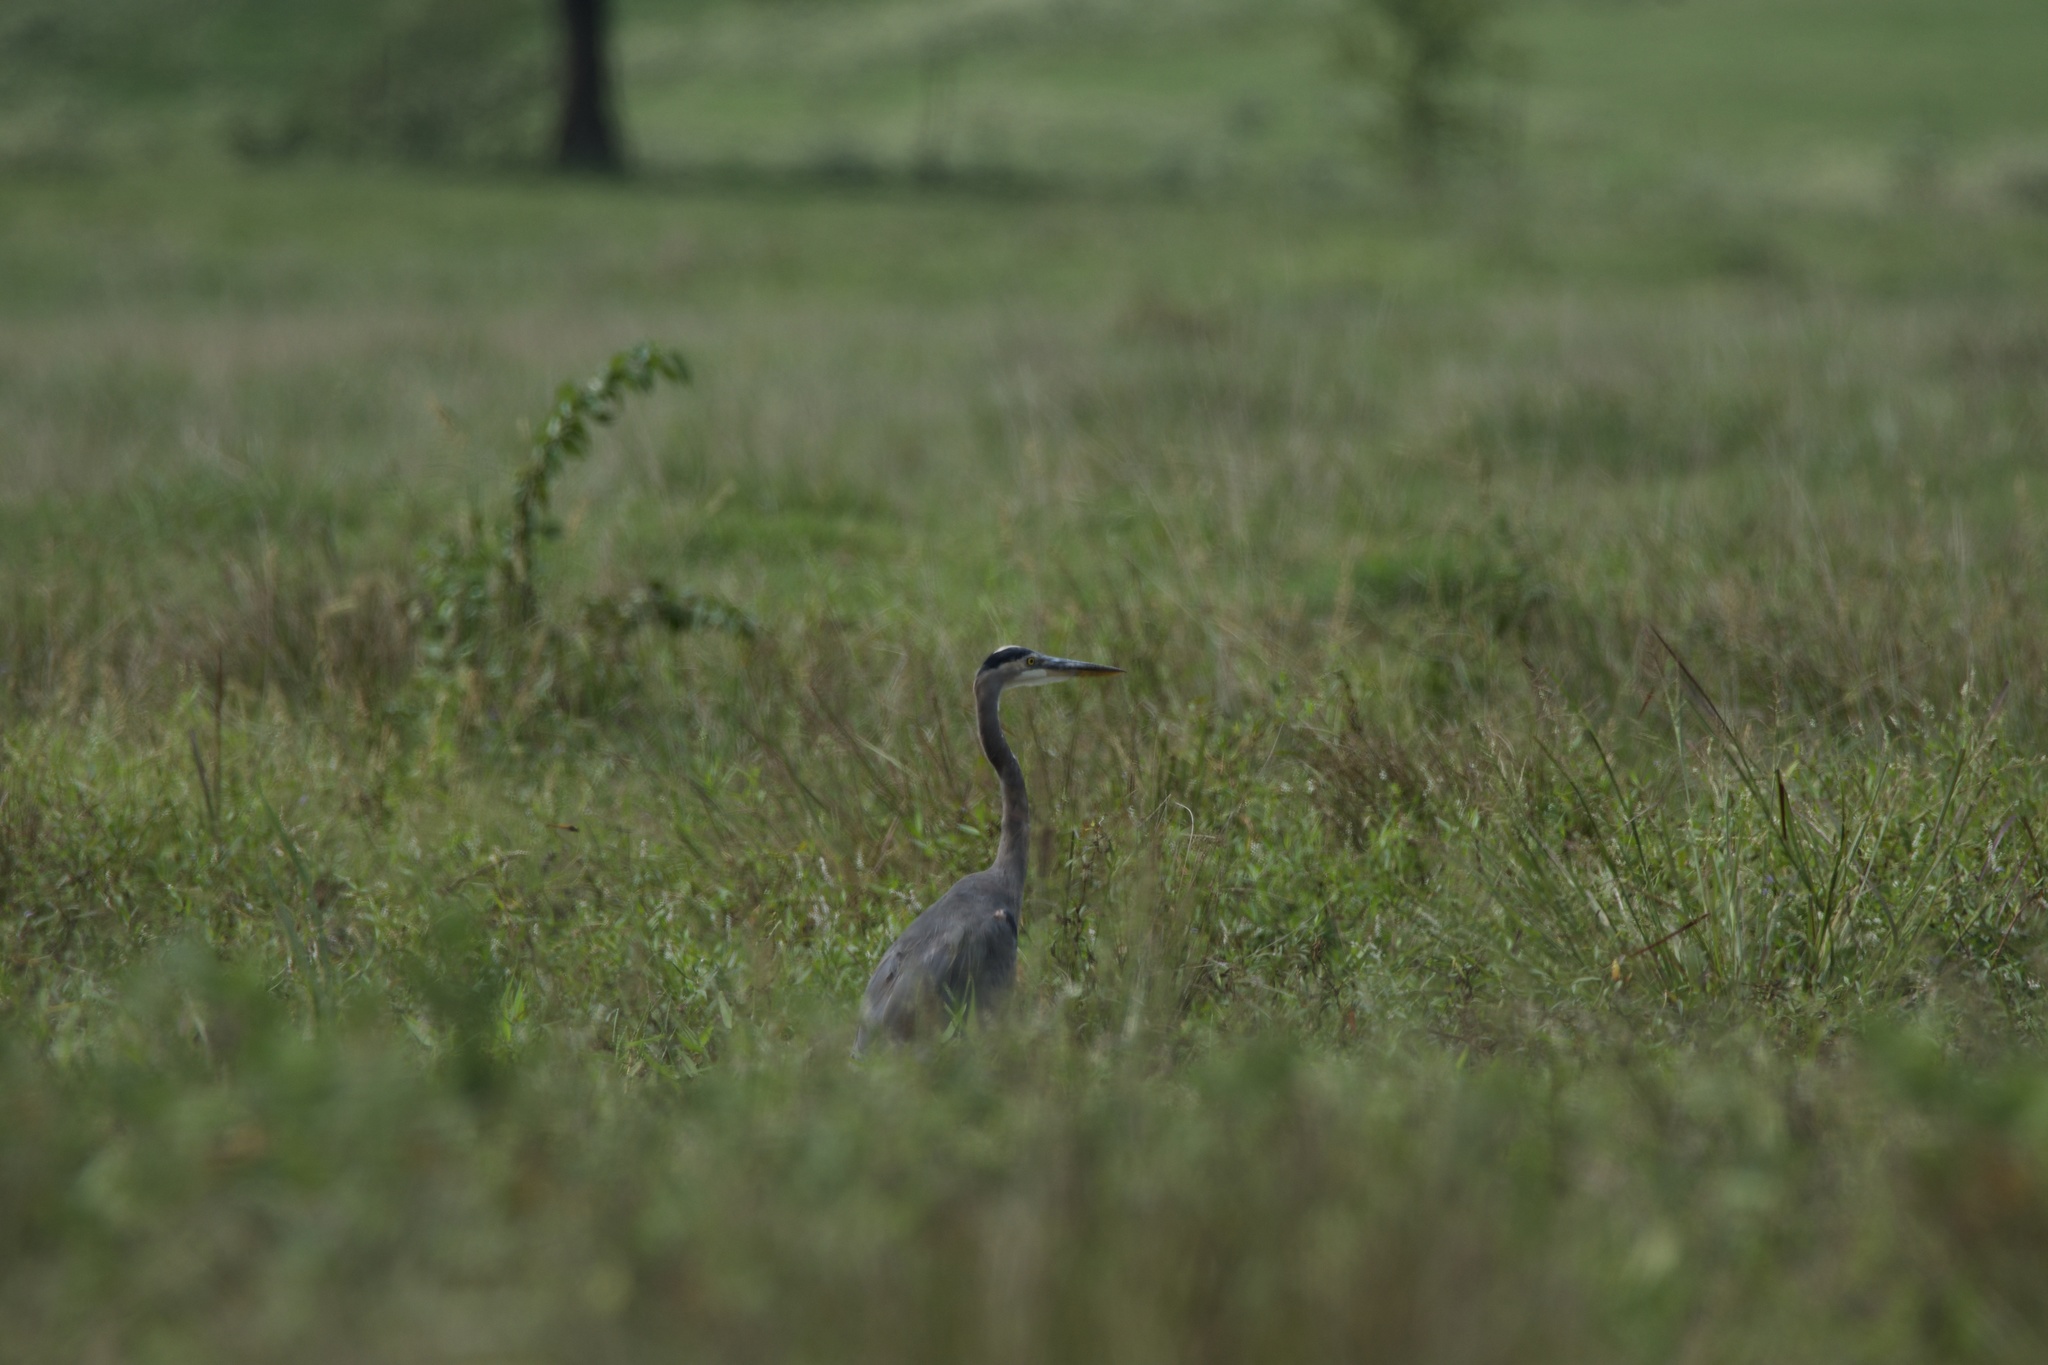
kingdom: Animalia
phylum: Chordata
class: Aves
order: Pelecaniformes
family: Ardeidae
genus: Ardea
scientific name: Ardea herodias
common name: Great blue heron
